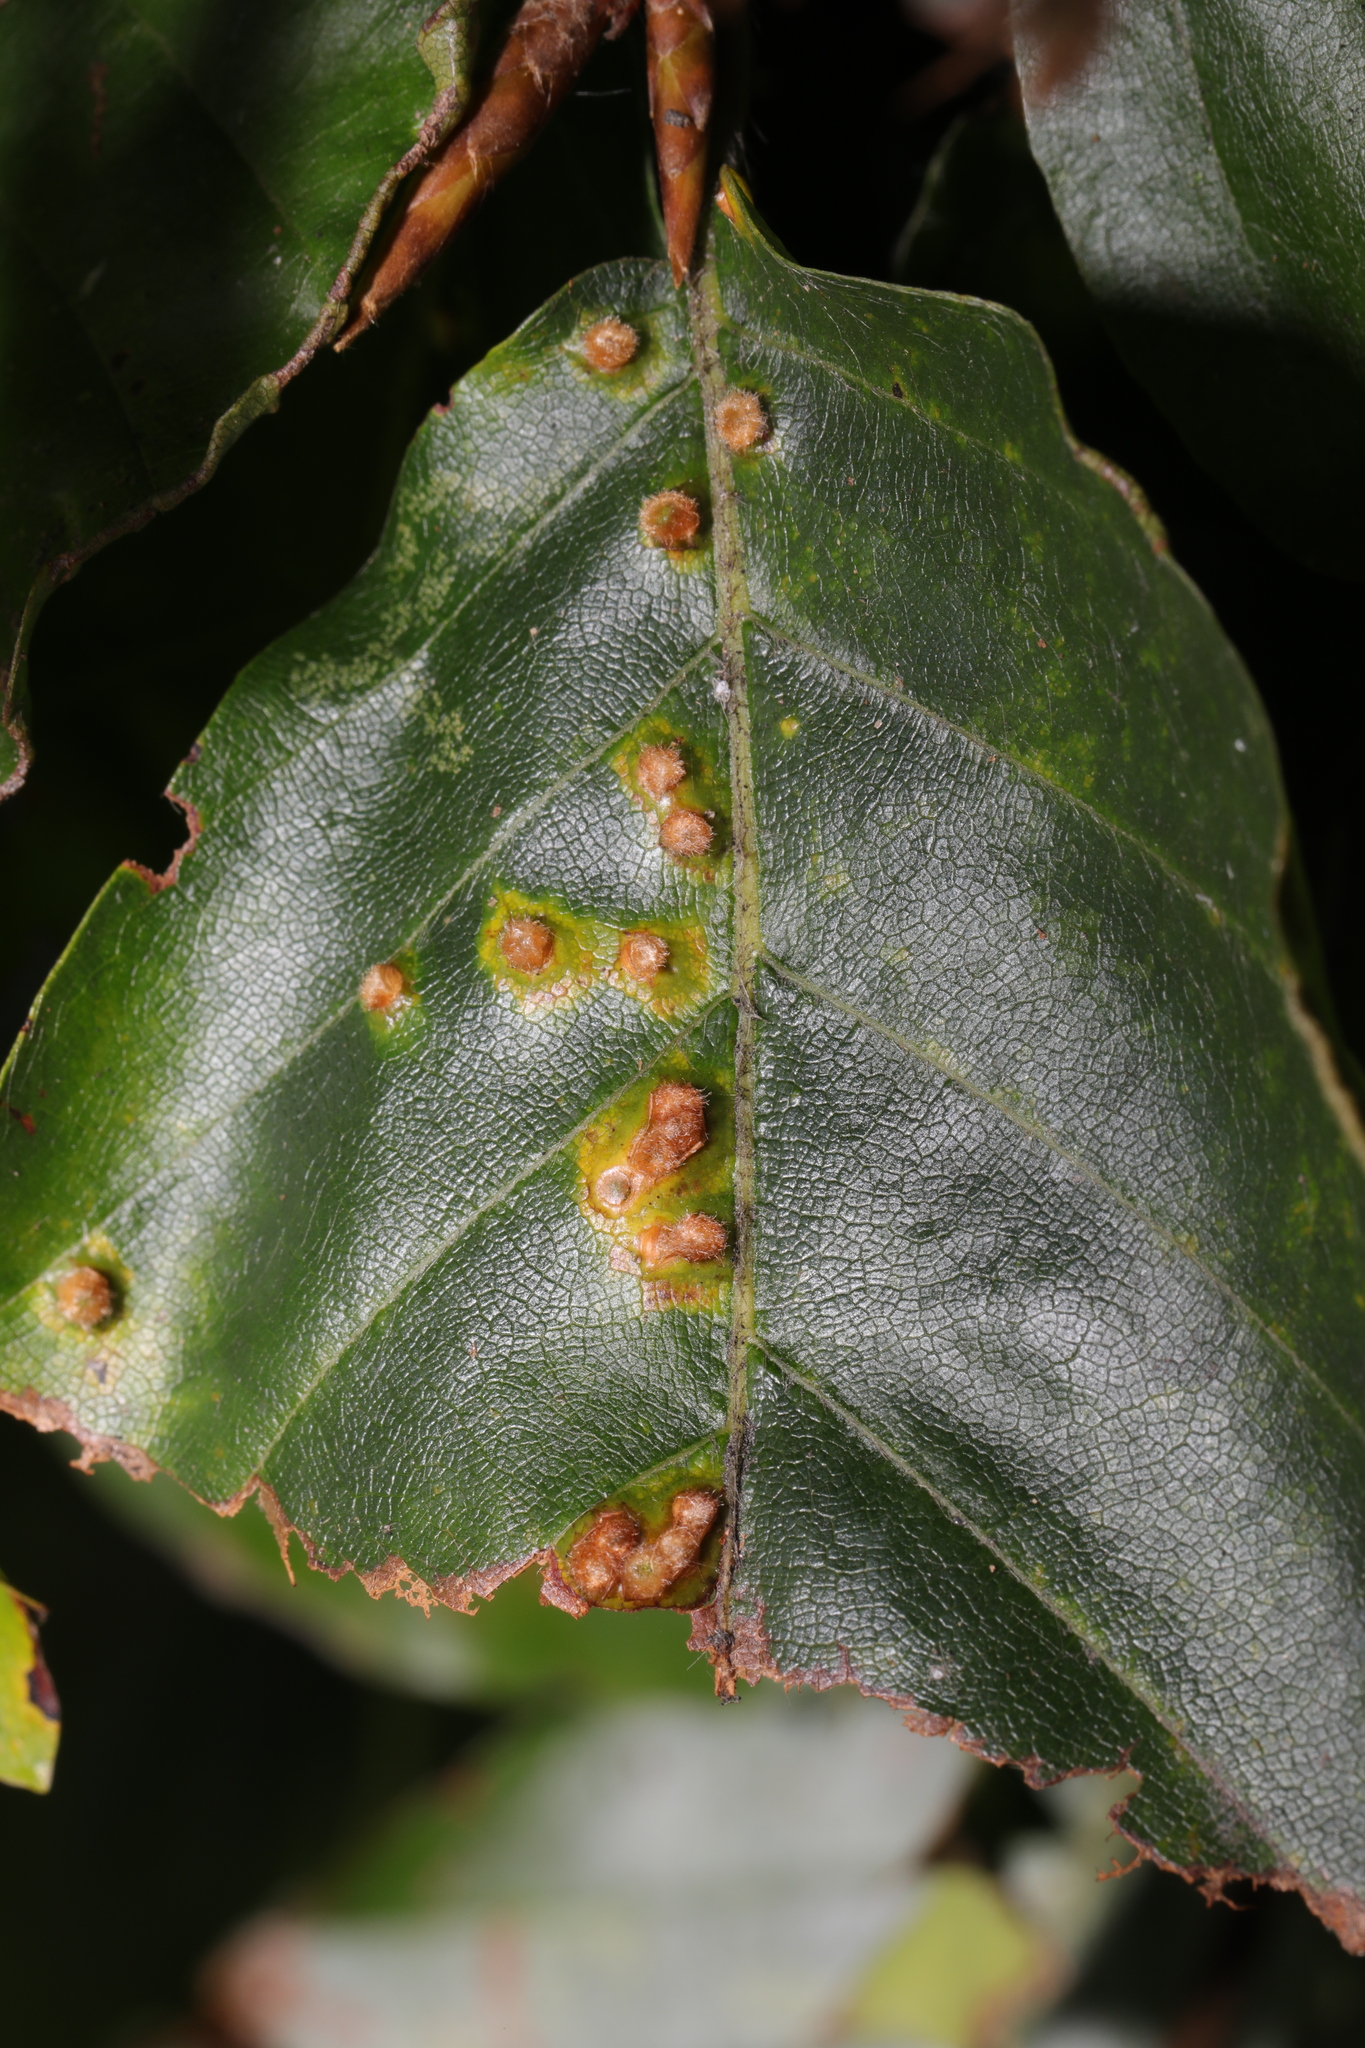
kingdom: Animalia
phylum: Arthropoda
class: Insecta
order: Diptera
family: Cecidomyiidae
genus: Hartigiola
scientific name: Hartigiola annulipes
